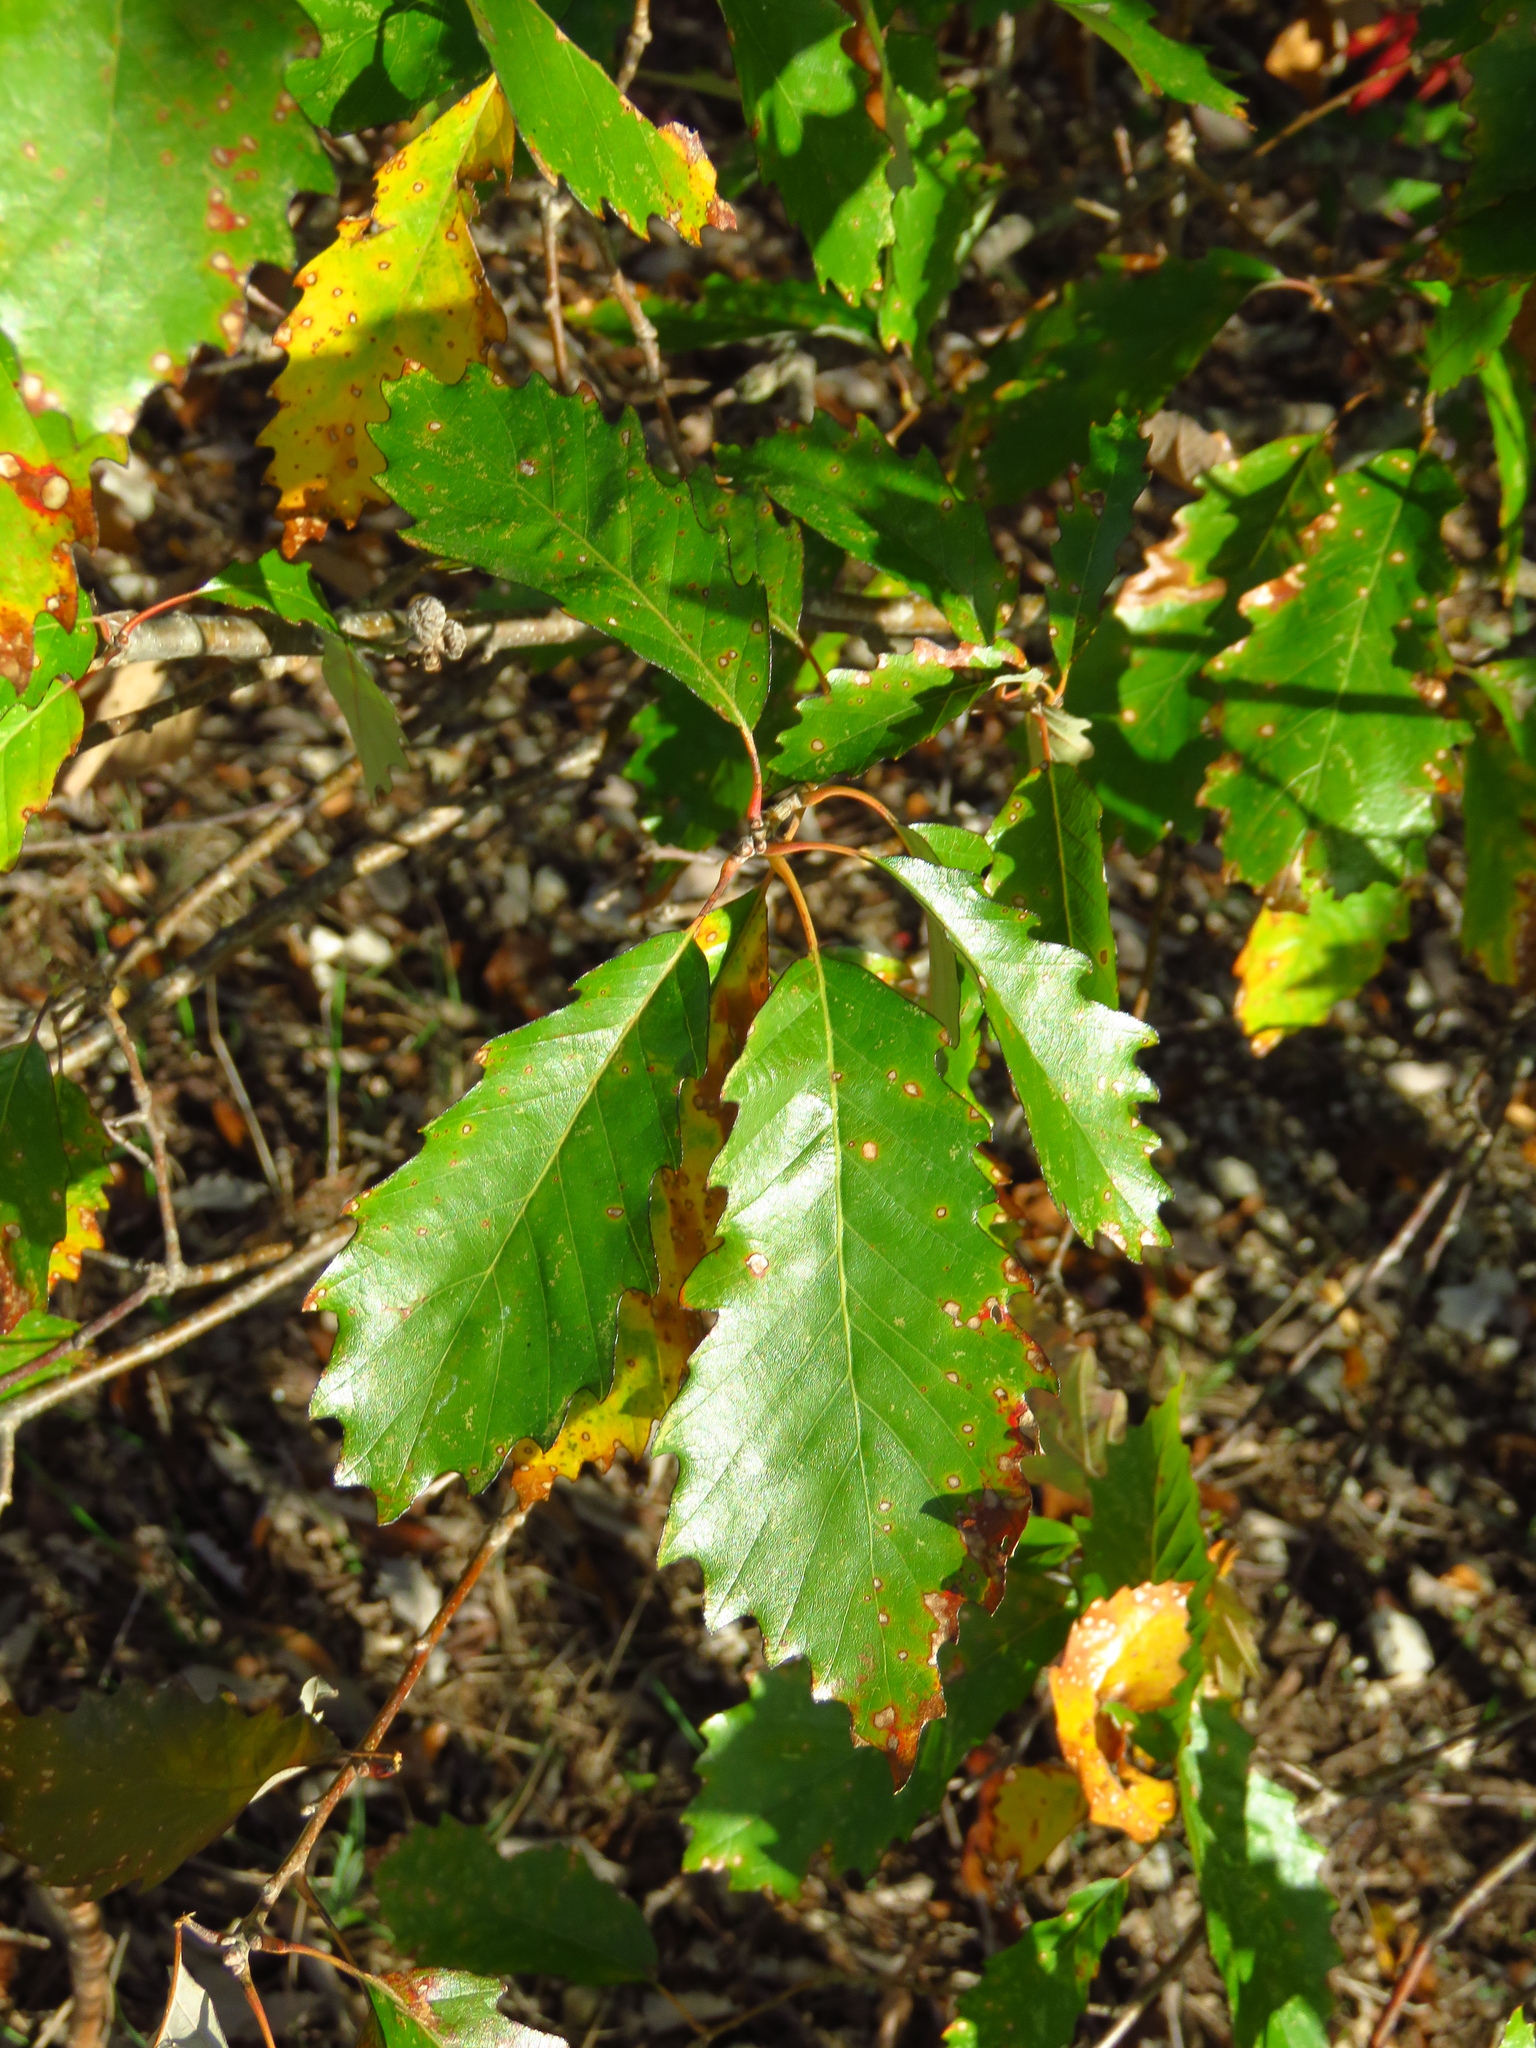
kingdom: Plantae
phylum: Tracheophyta
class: Magnoliopsida
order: Fagales
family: Fagaceae
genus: Quercus
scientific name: Quercus muehlenbergii
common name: Chinkapin oak
